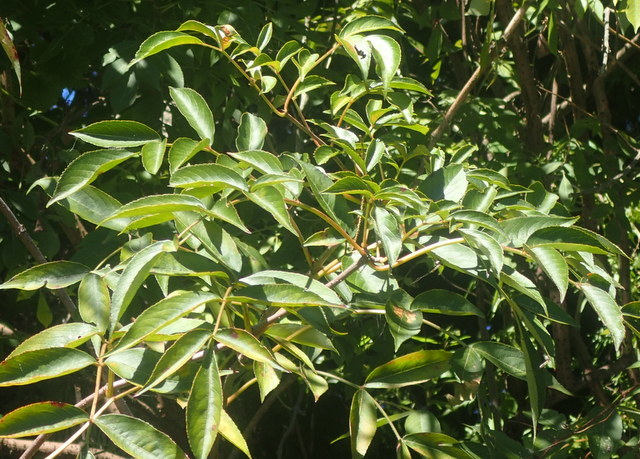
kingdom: Plantae
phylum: Tracheophyta
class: Magnoliopsida
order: Dipsacales
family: Viburnaceae
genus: Sambucus
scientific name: Sambucus canadensis
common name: American elder
